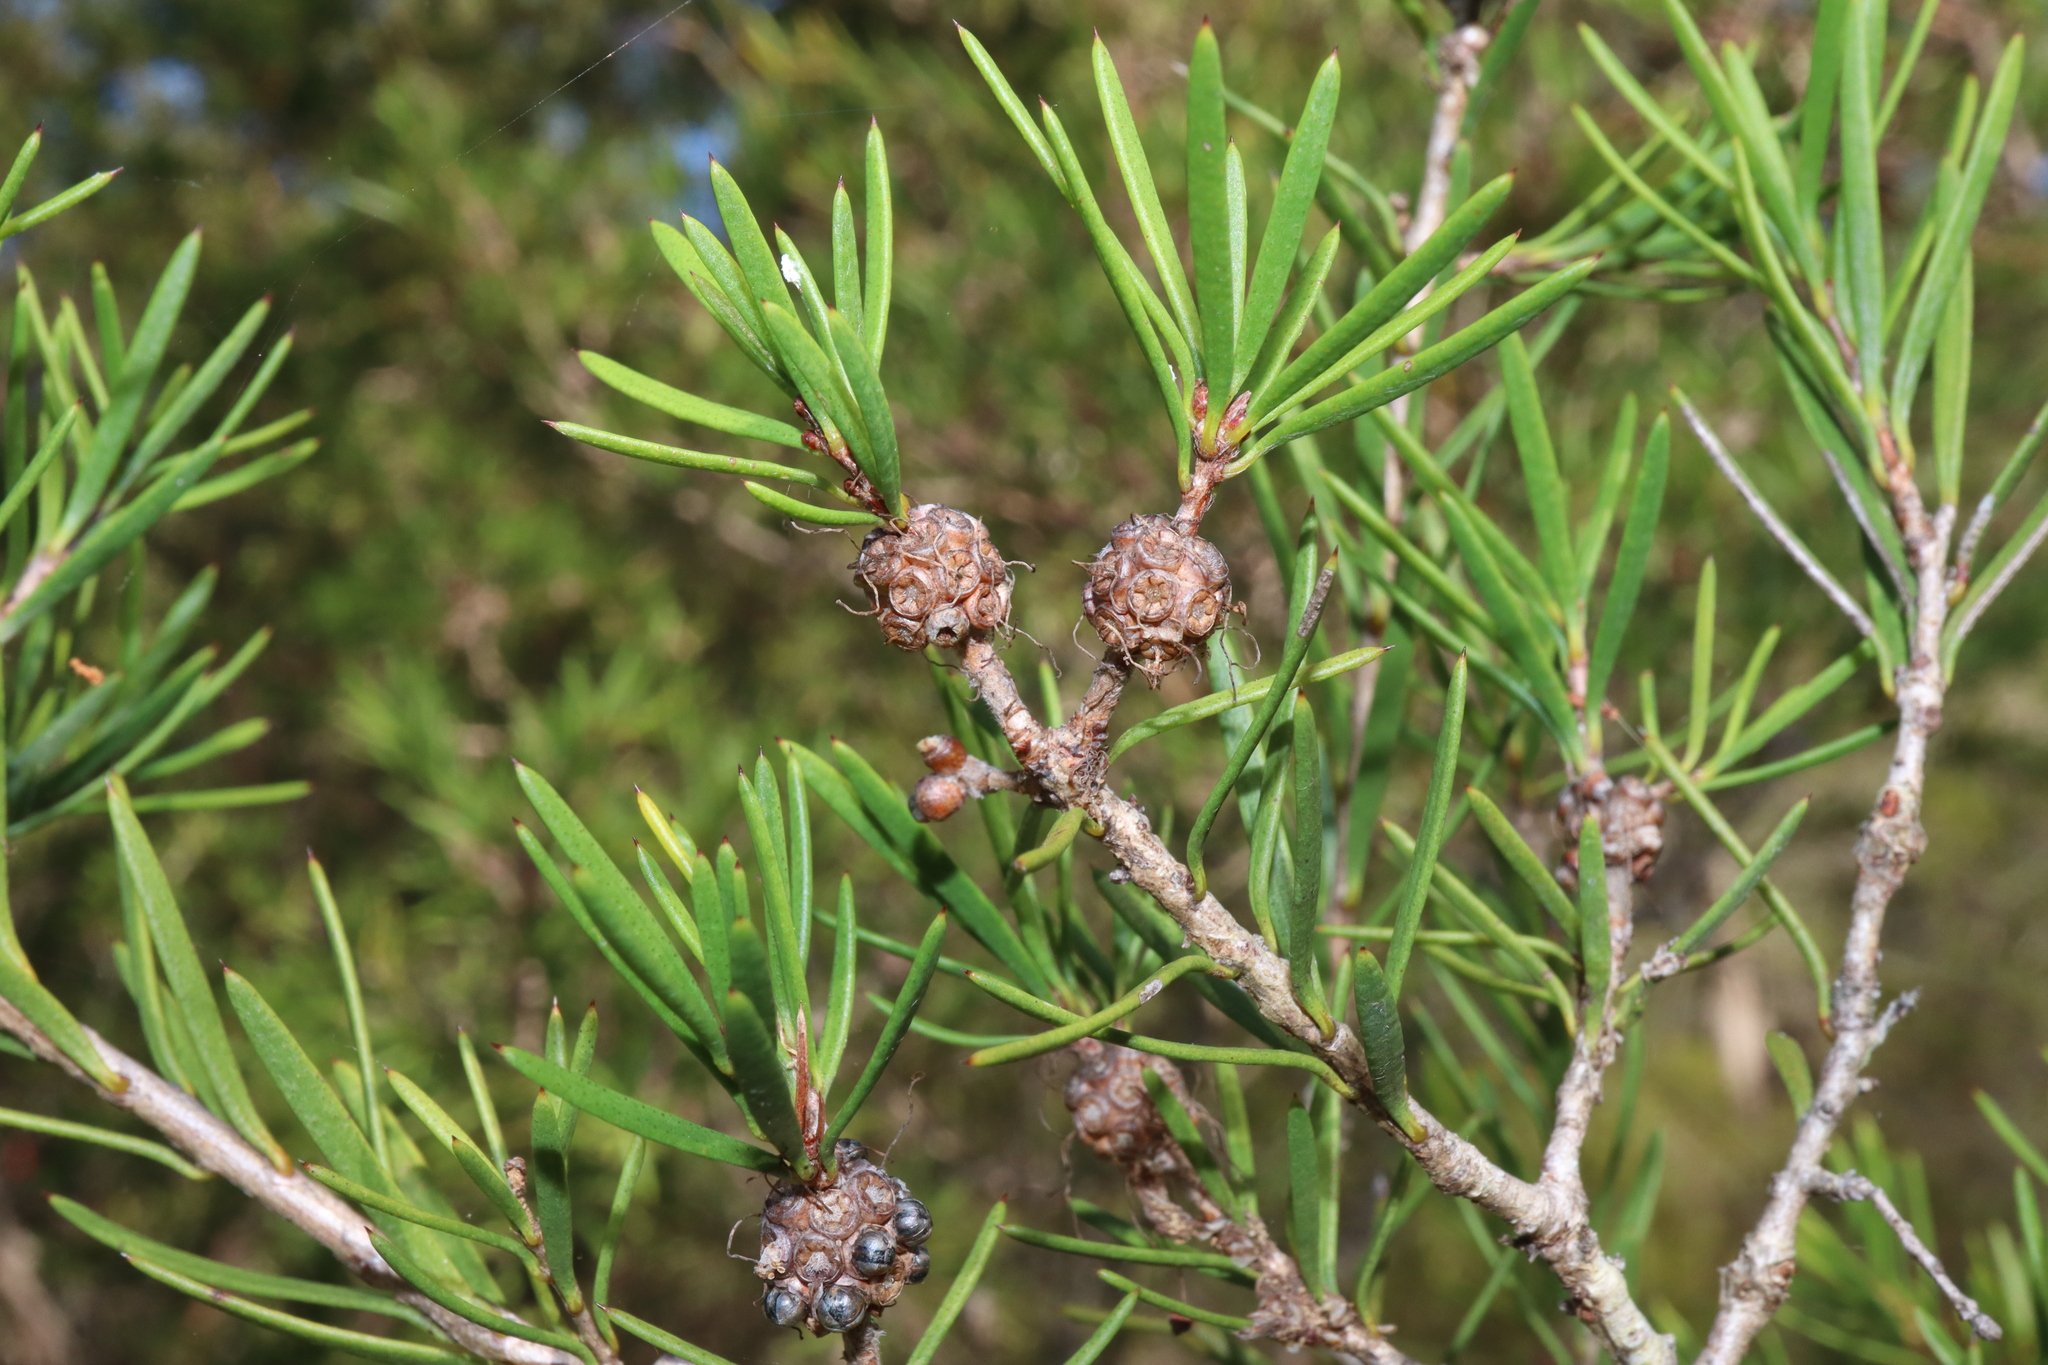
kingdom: Plantae
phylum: Tracheophyta
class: Magnoliopsida
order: Myrtales
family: Myrtaceae
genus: Melaleuca
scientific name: Melaleuca nodosa
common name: Prickly-leaf paperbark
